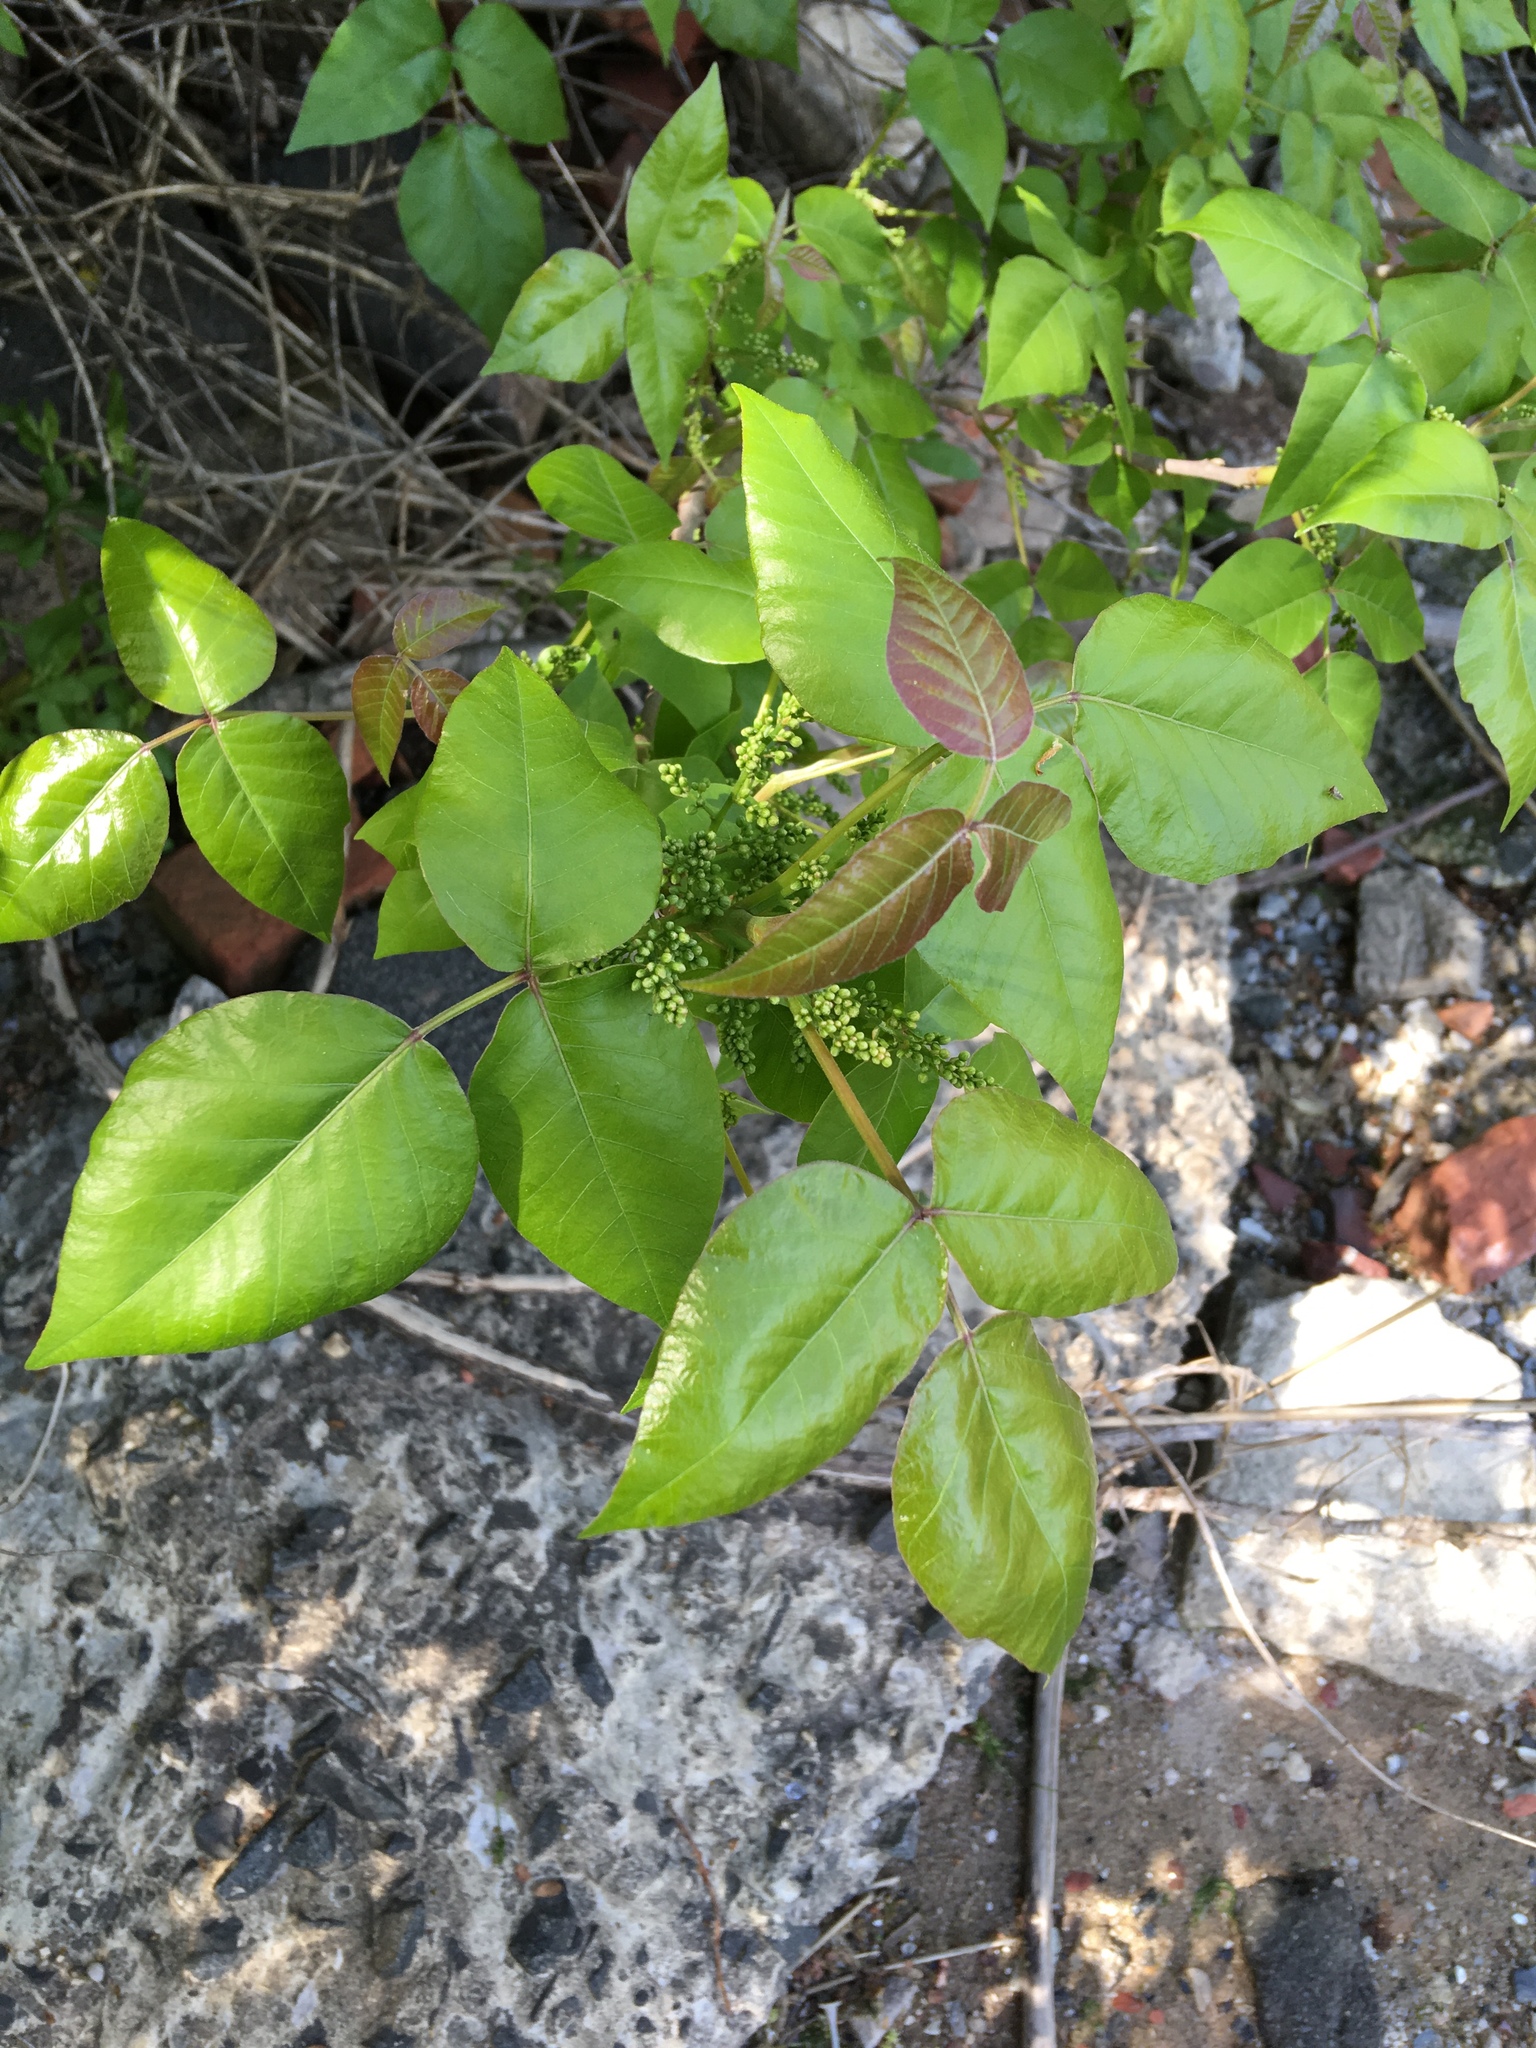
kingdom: Plantae
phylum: Tracheophyta
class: Magnoliopsida
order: Sapindales
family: Anacardiaceae
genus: Toxicodendron
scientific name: Toxicodendron radicans
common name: Poison ivy
